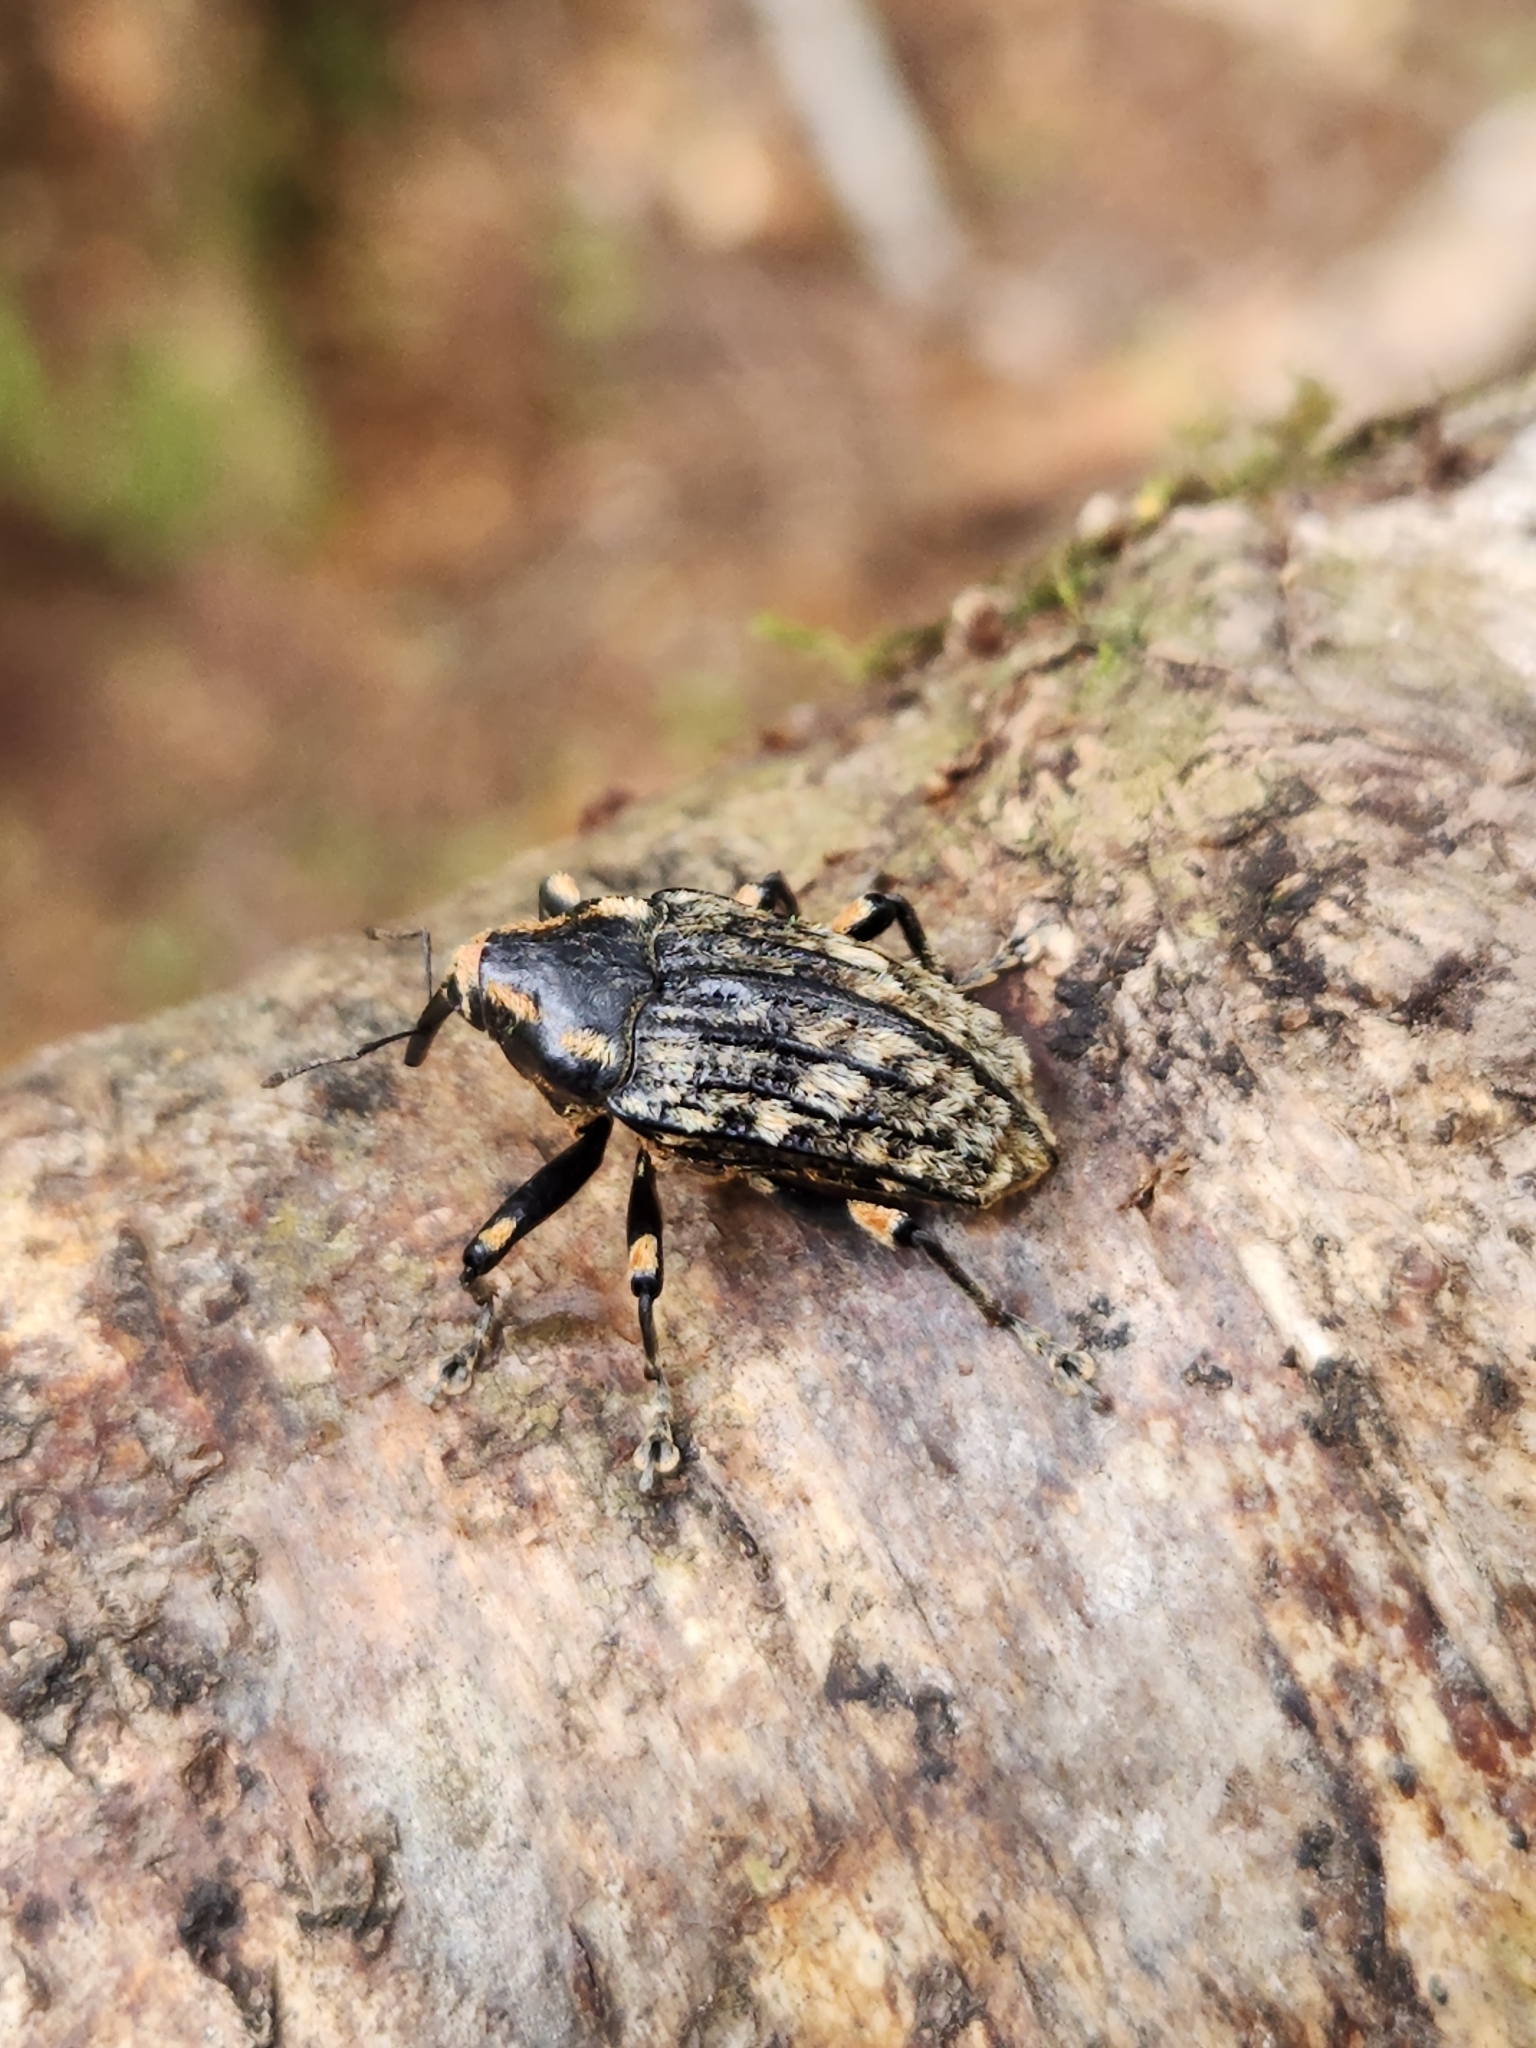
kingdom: Animalia
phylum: Arthropoda
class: Insecta
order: Coleoptera
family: Curculionidae
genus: Rhynchodes
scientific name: Rhynchodes ursus
